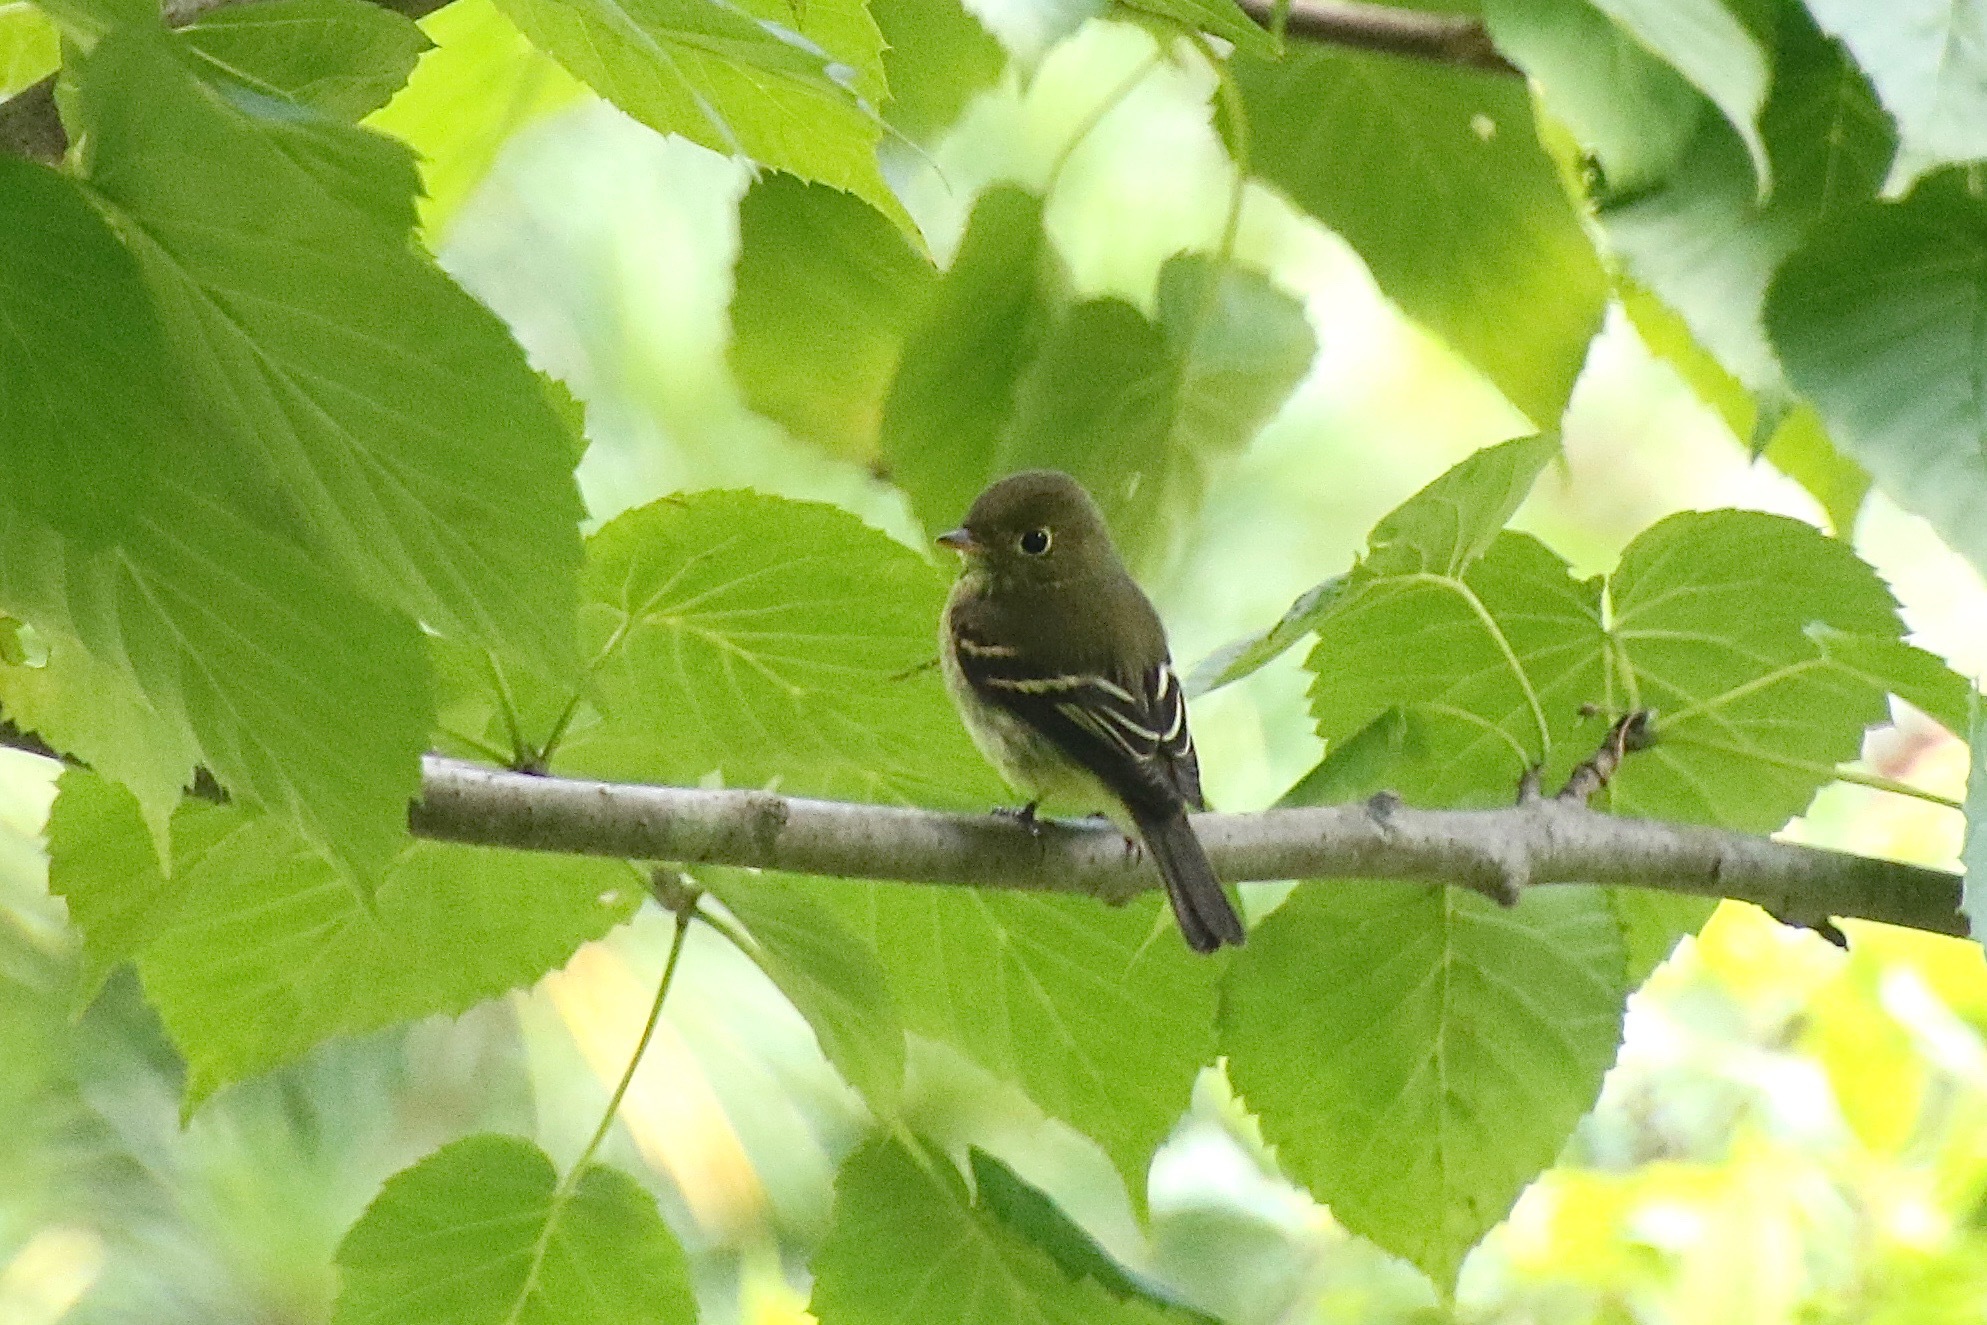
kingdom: Animalia
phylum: Chordata
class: Aves
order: Passeriformes
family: Tyrannidae
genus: Empidonax
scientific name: Empidonax flaviventris
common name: Yellow-bellied flycatcher
